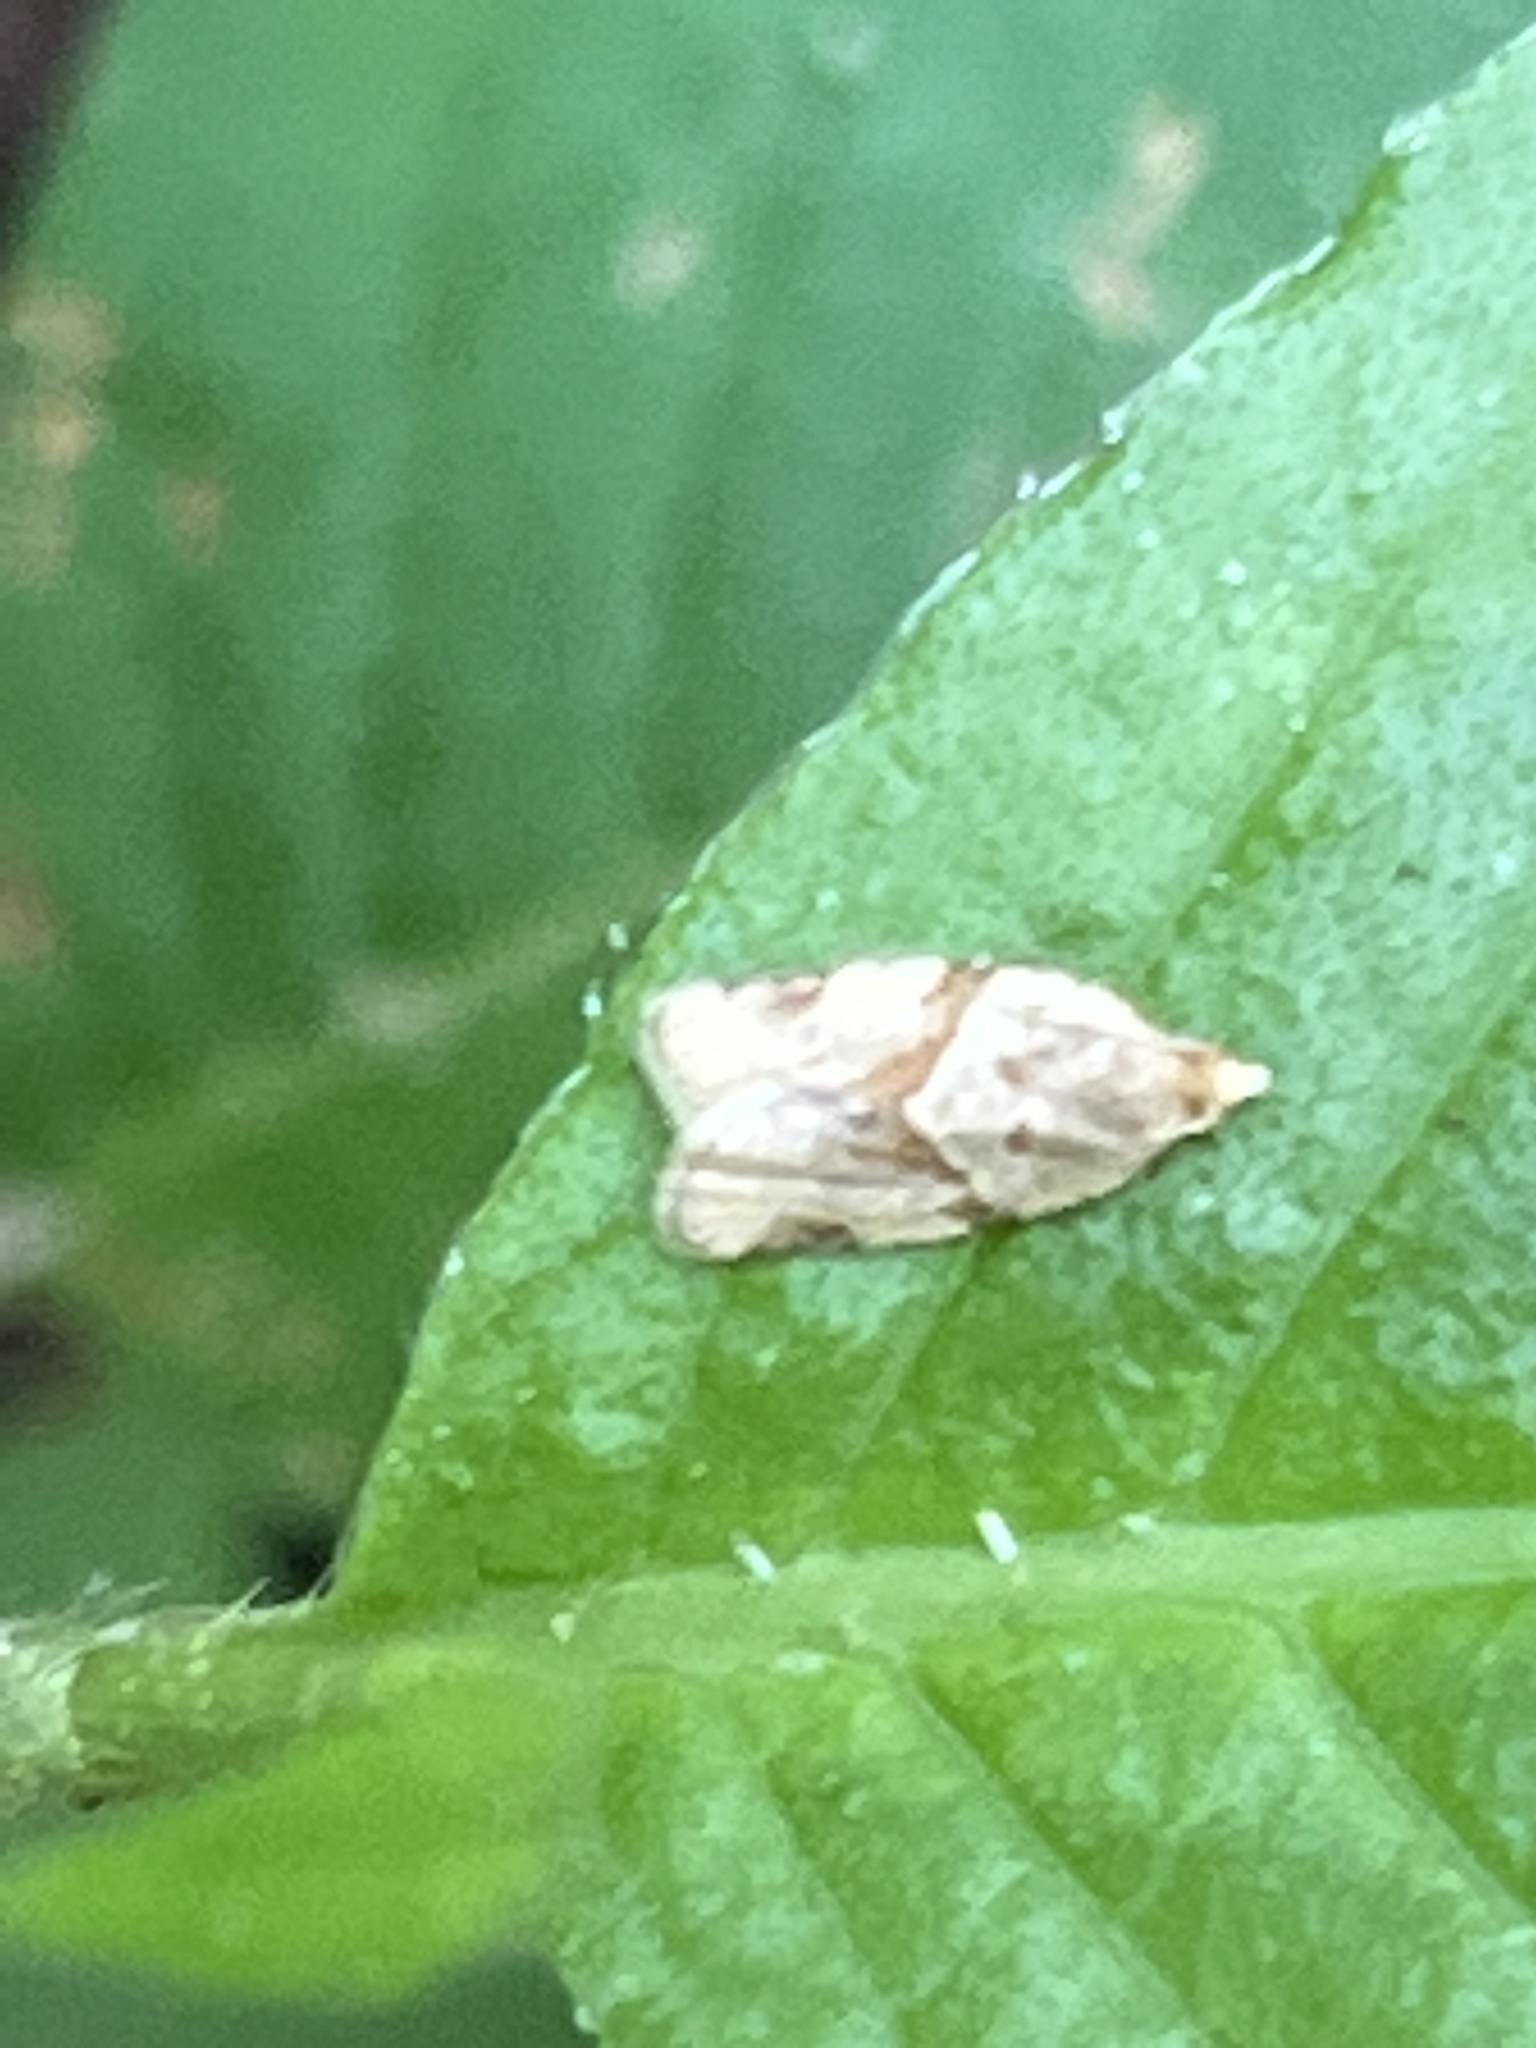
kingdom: Animalia
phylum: Arthropoda
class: Insecta
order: Lepidoptera
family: Tortricidae
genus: Clepsis
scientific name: Clepsis peritana
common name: Garden tortrix
